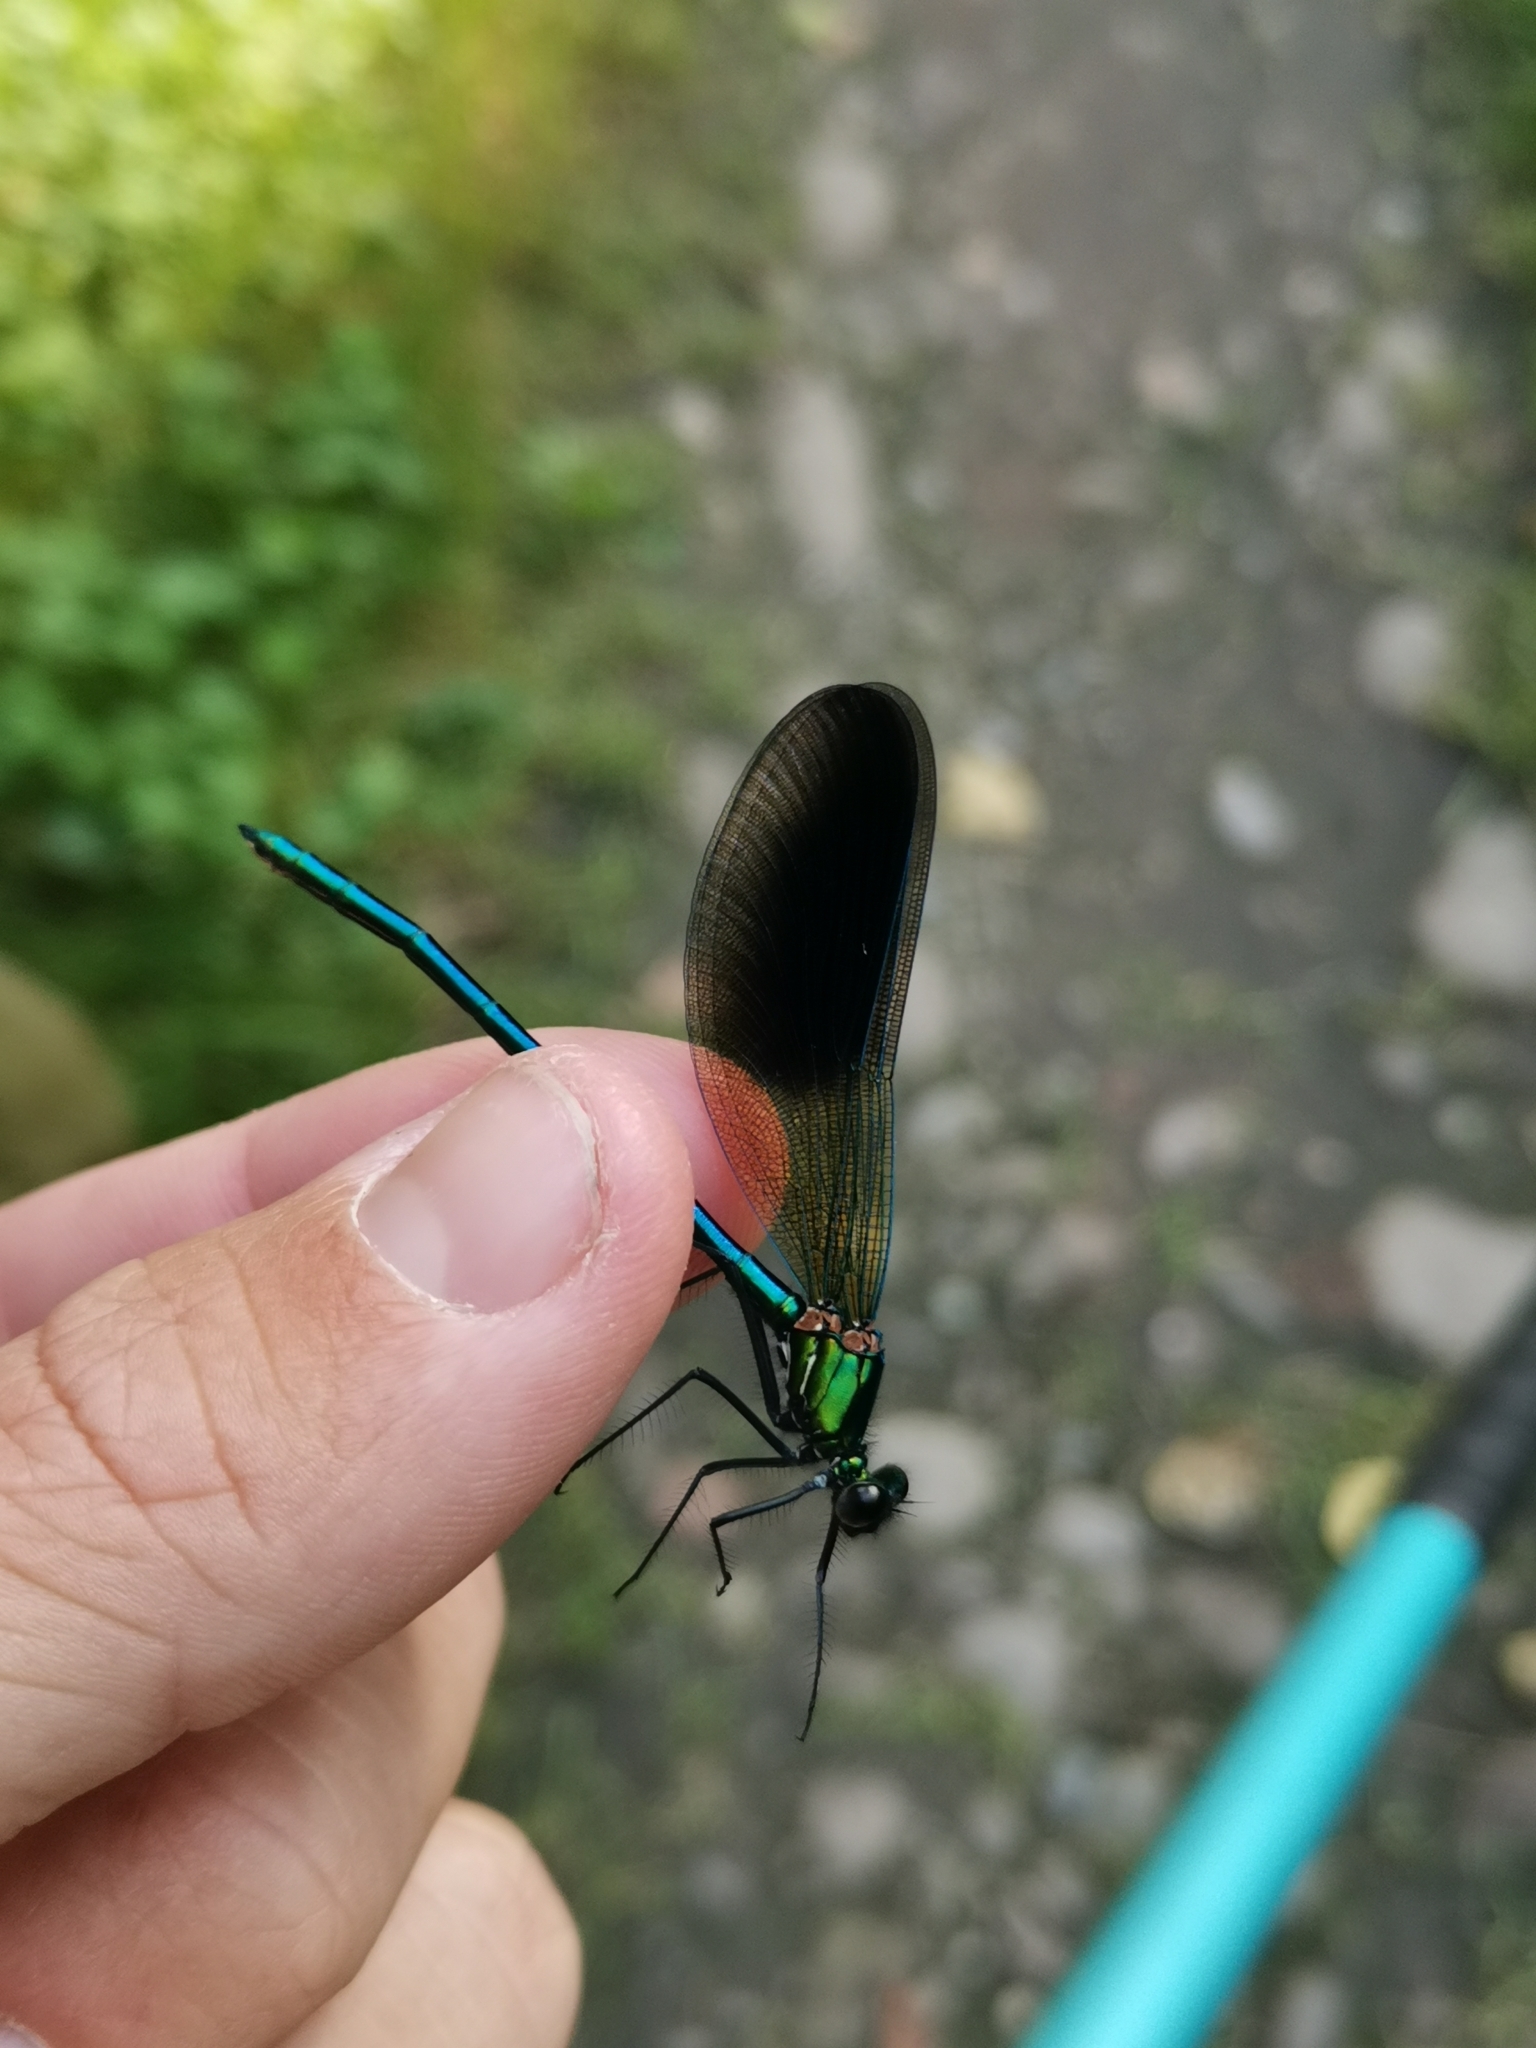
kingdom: Animalia
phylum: Arthropoda
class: Insecta
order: Odonata
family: Calopterygidae
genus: Calopteryx
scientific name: Calopteryx xanthostoma
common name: Western demoiselle
